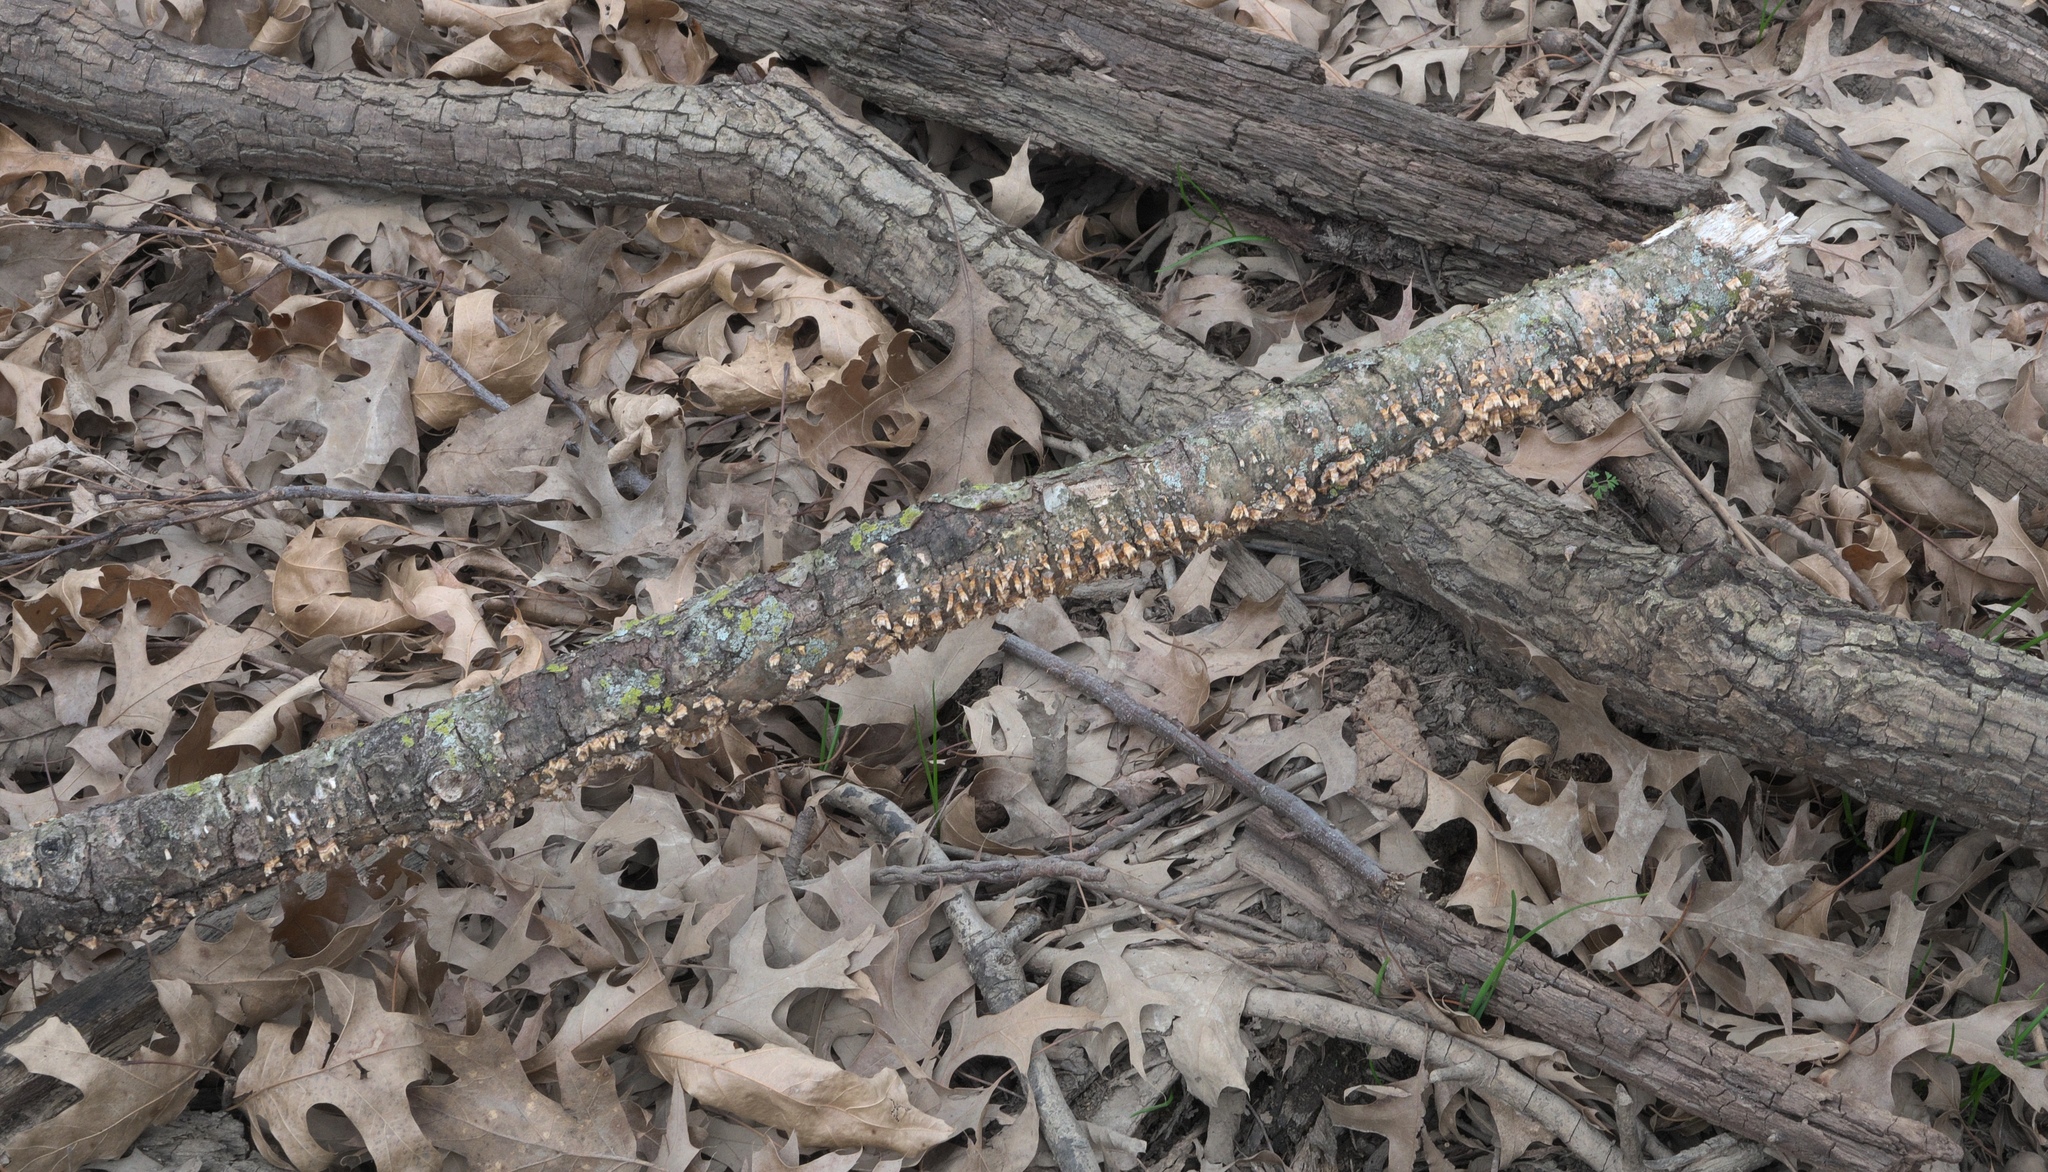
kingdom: Fungi
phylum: Basidiomycota
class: Agaricomycetes
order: Russulales
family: Stereaceae
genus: Stereum
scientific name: Stereum complicatum
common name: Crowded parchment
